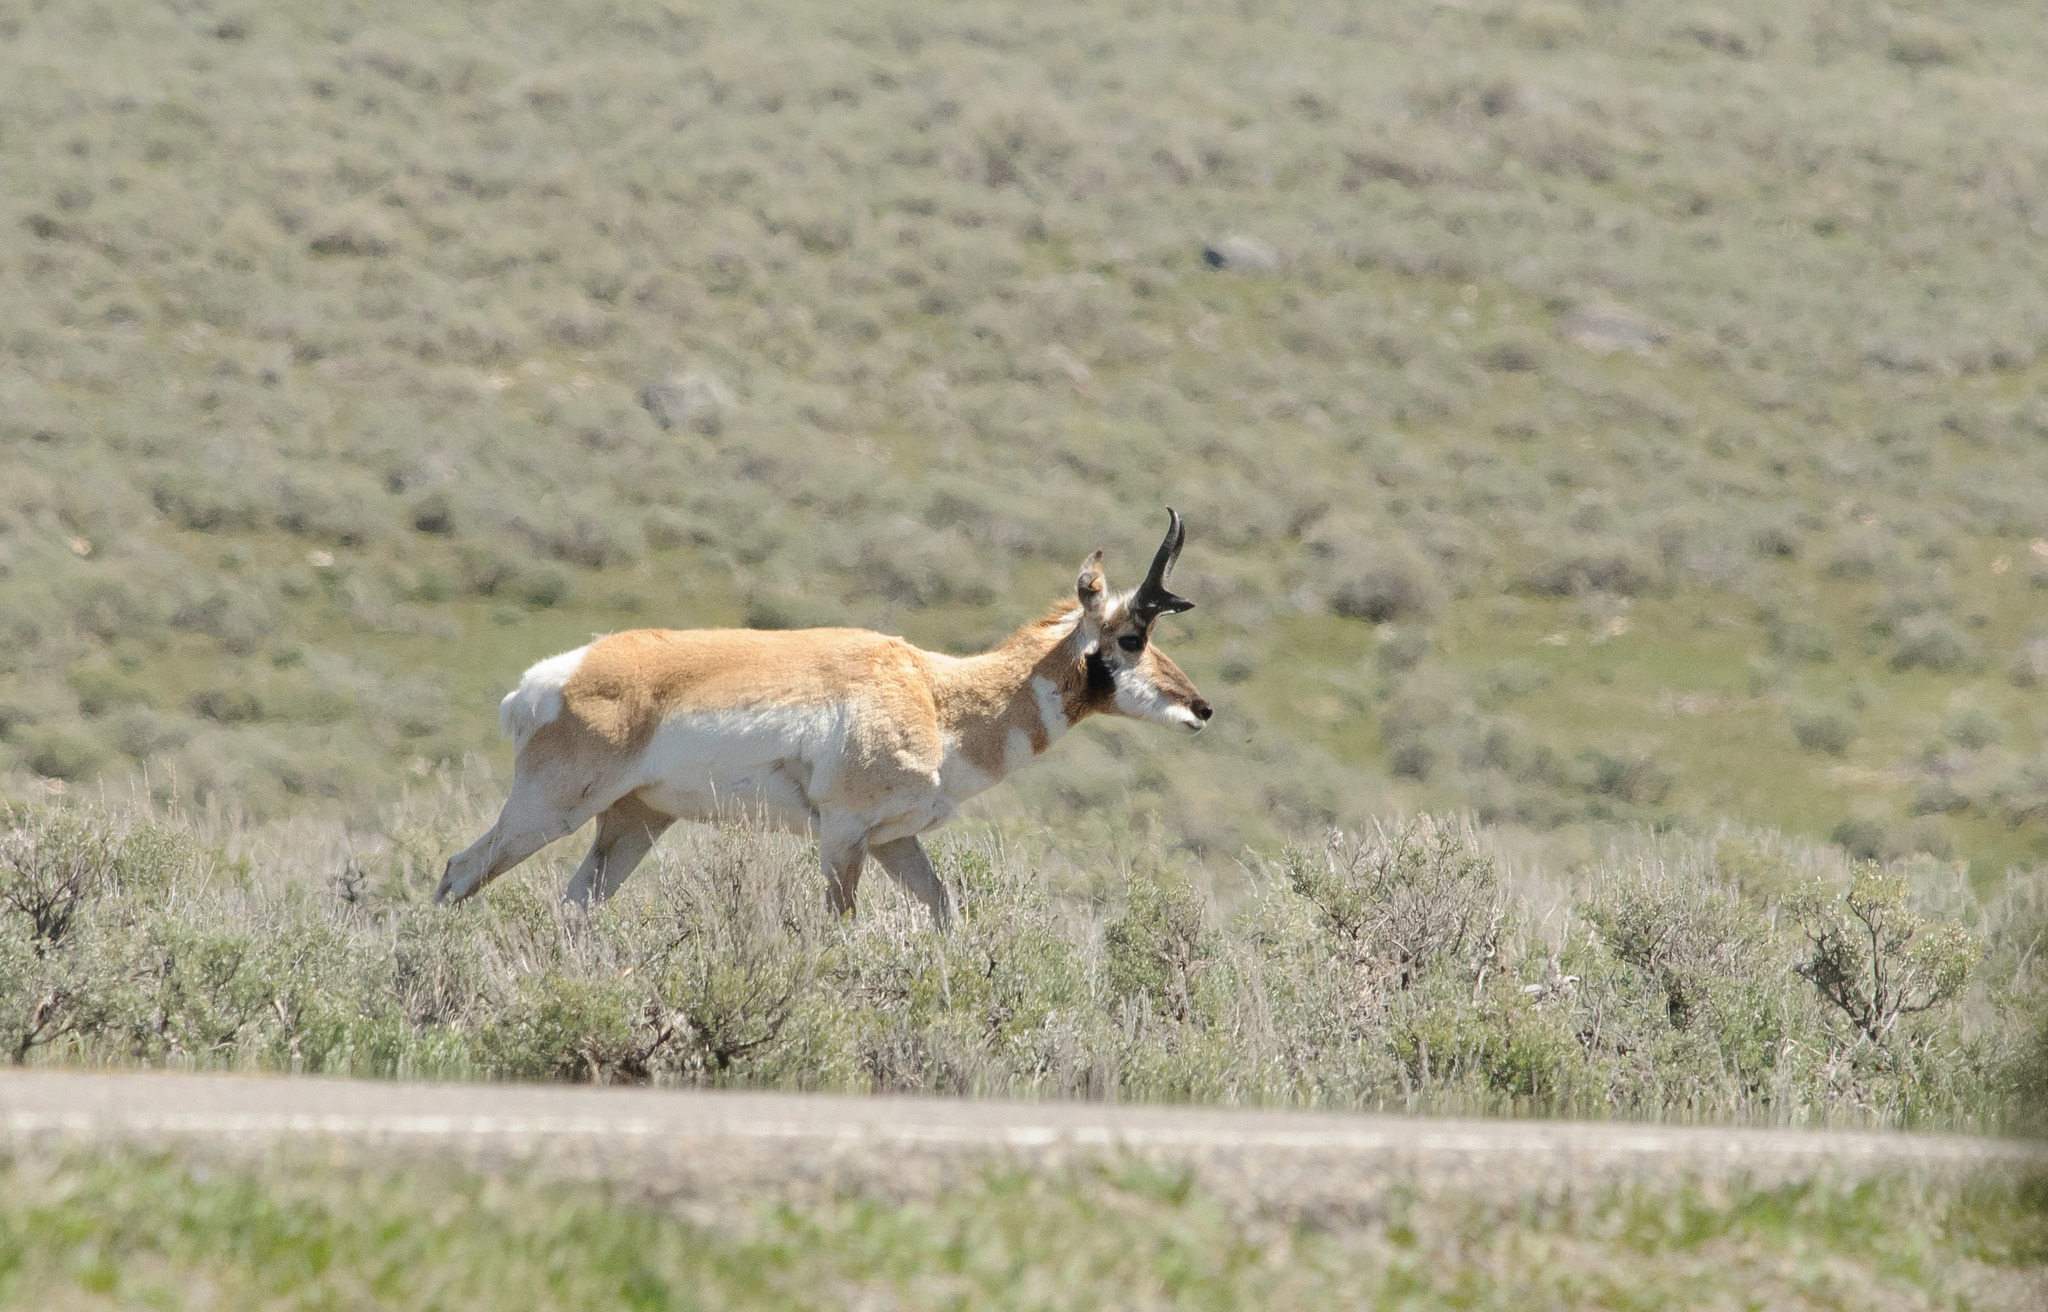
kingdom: Animalia
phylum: Chordata
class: Mammalia
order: Artiodactyla
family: Antilocapridae
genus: Antilocapra
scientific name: Antilocapra americana
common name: Pronghorn
